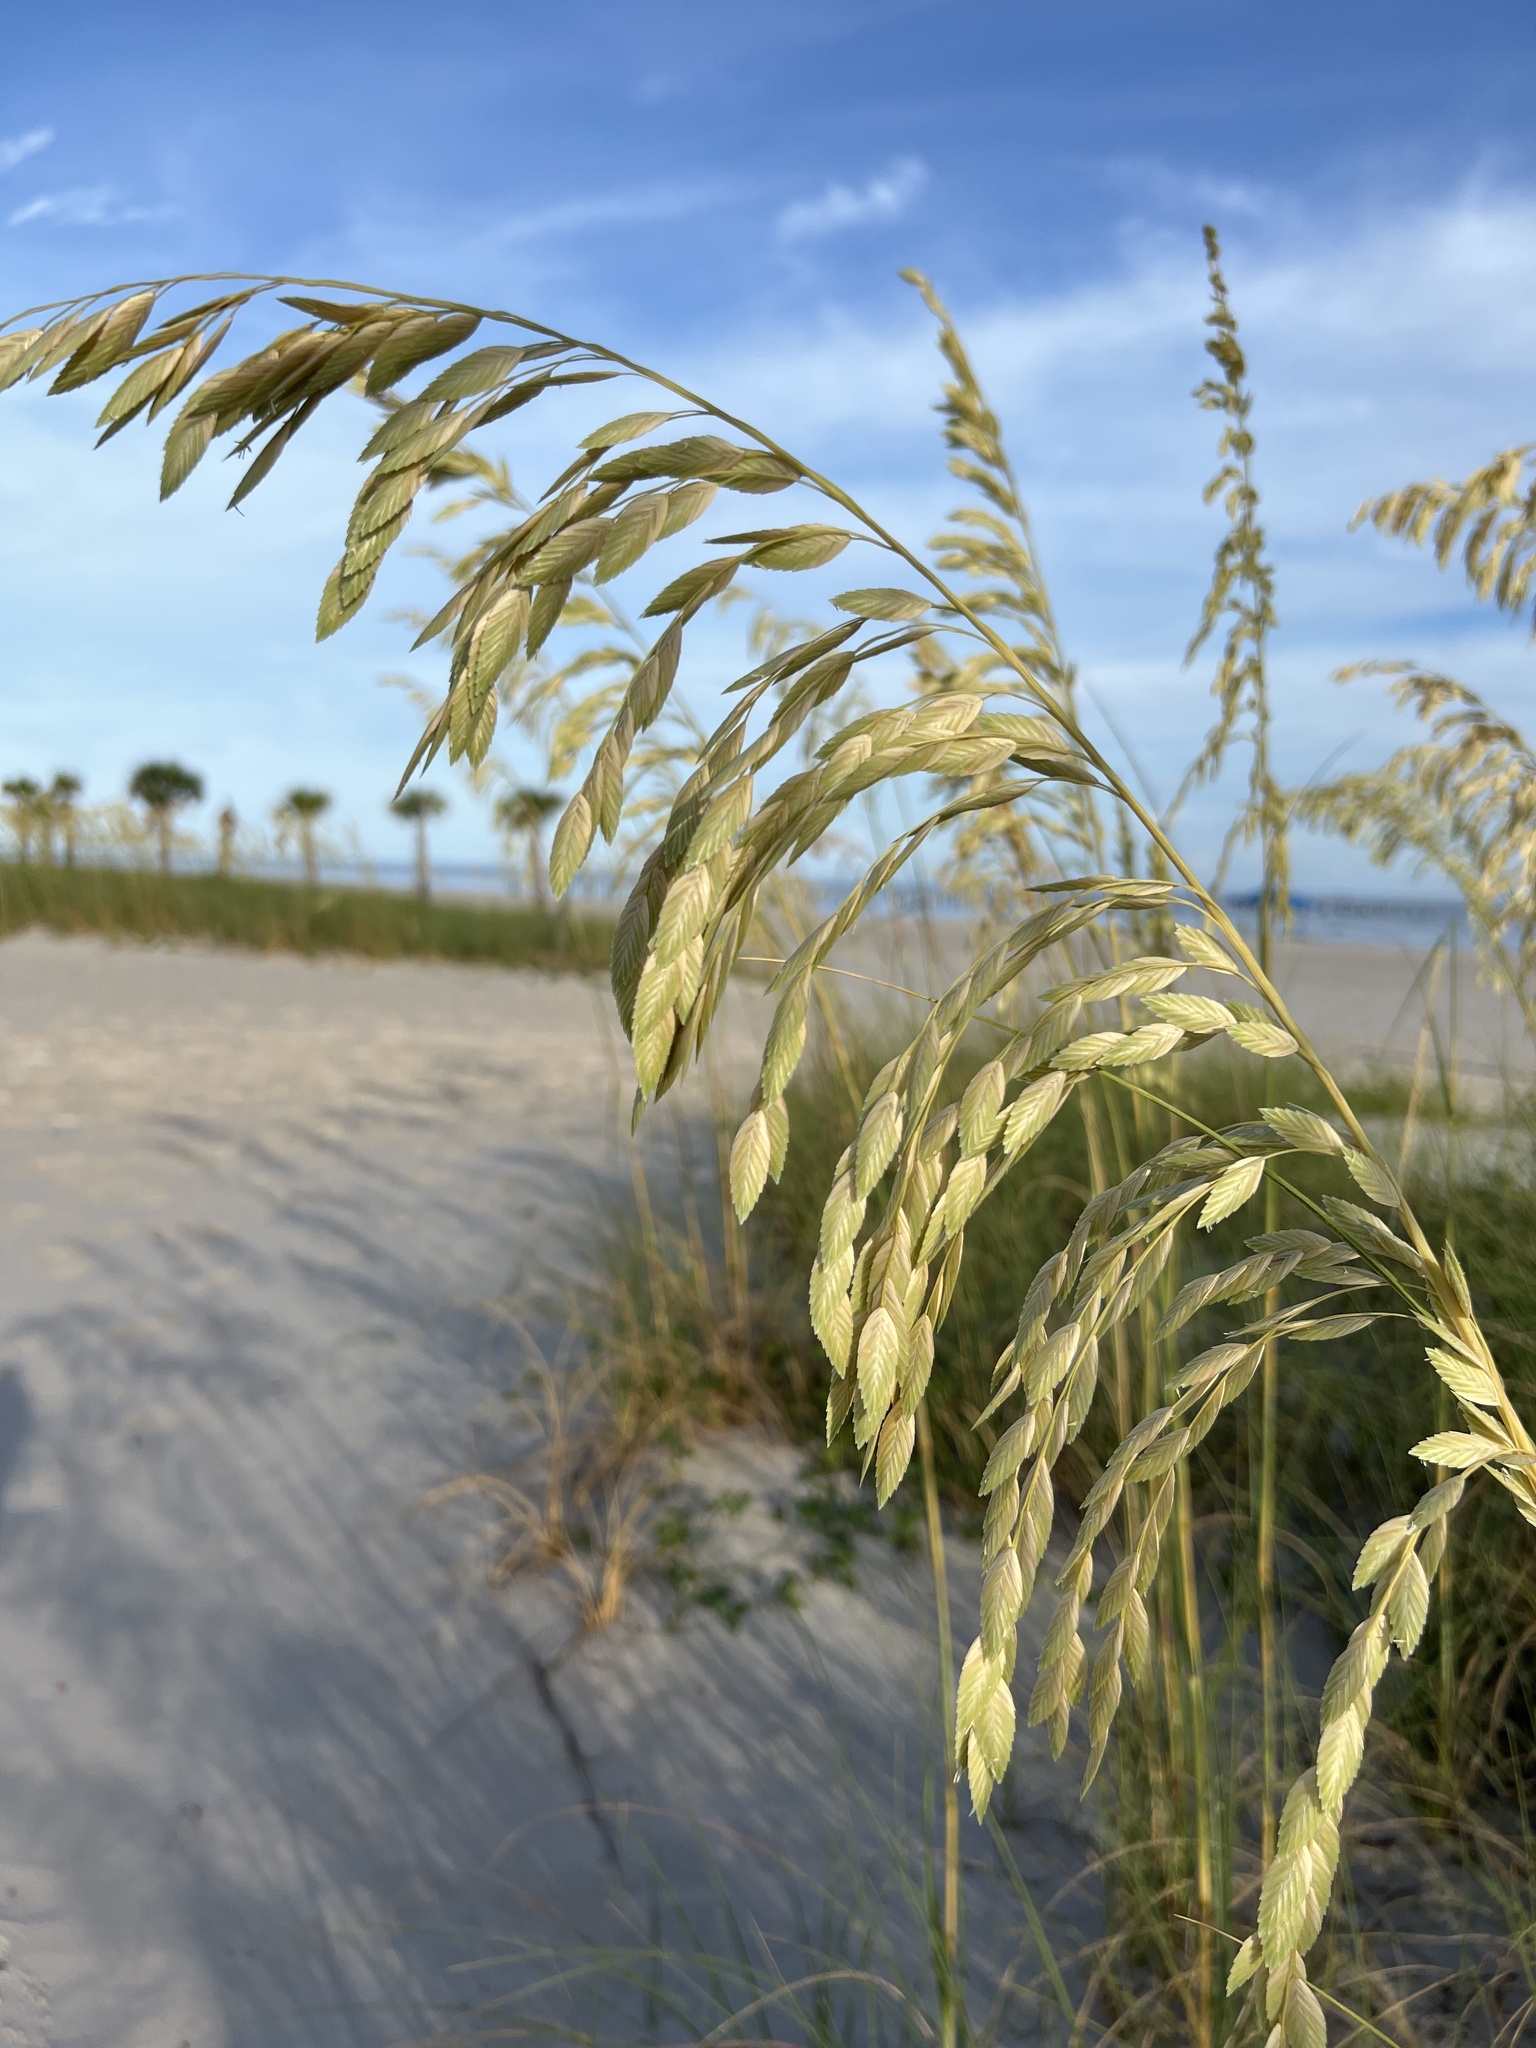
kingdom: Plantae
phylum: Tracheophyta
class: Liliopsida
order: Poales
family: Poaceae
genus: Uniola
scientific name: Uniola paniculata
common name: Seaside-oats
